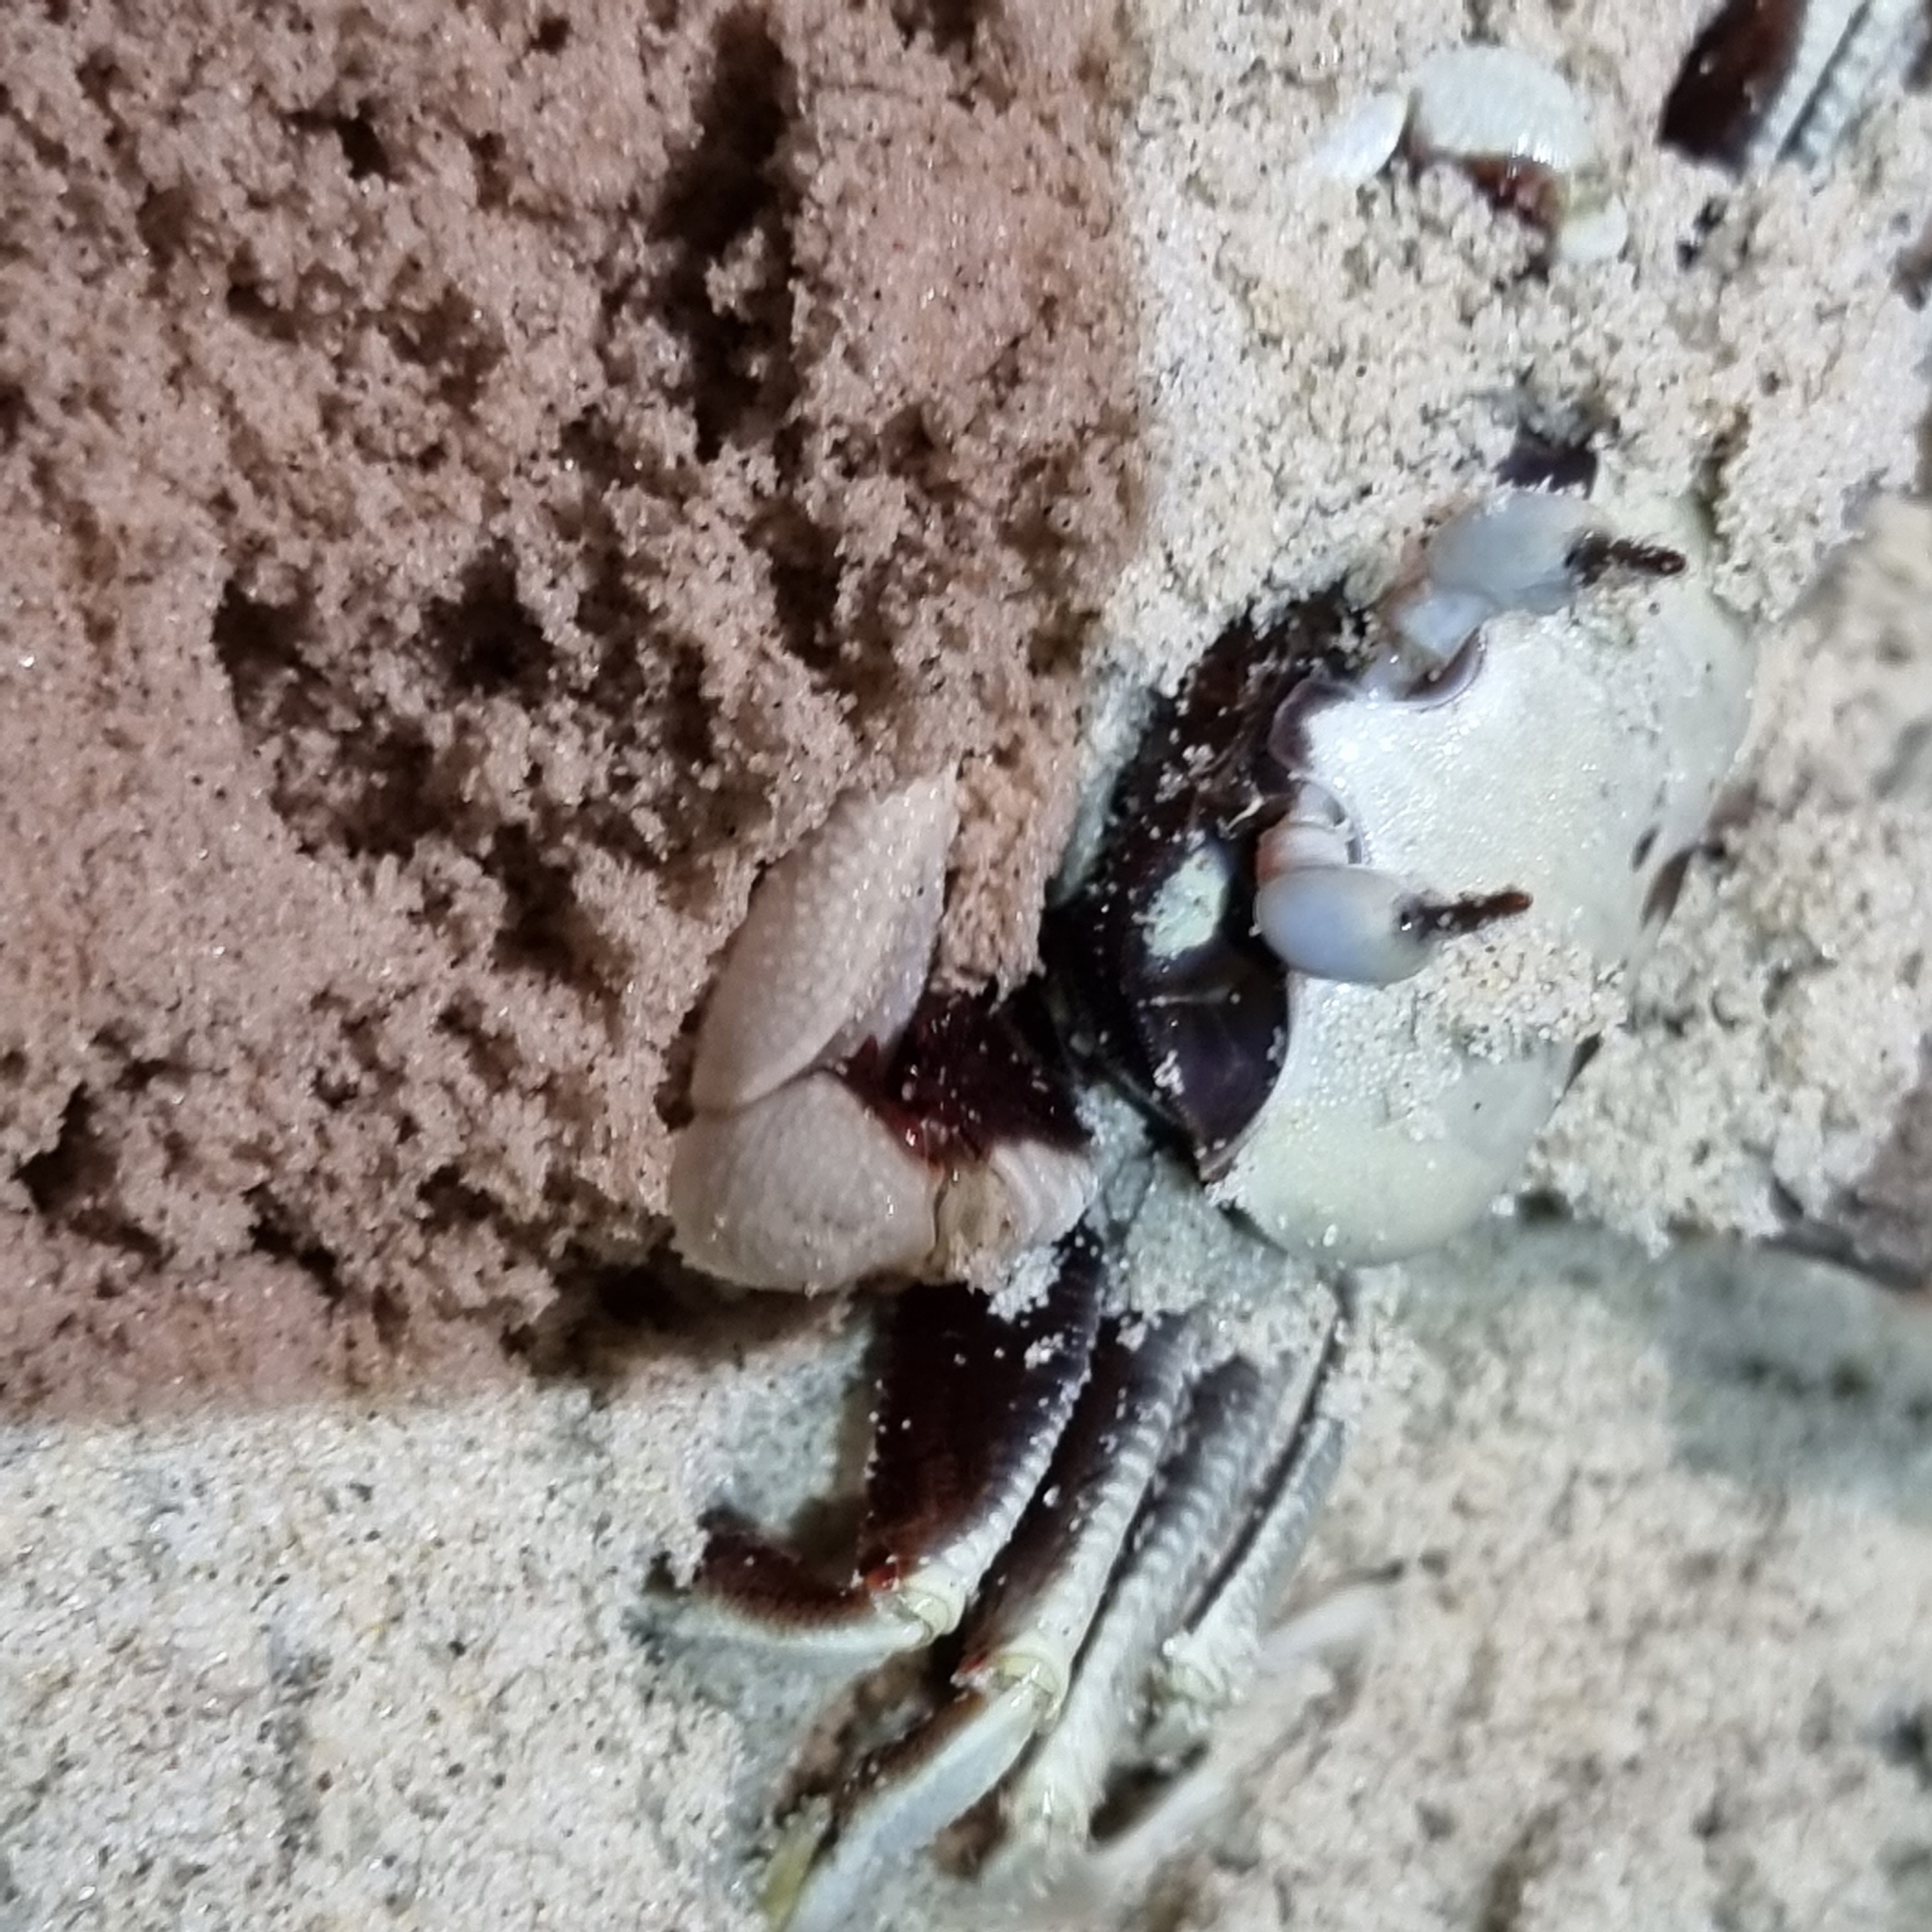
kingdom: Animalia
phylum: Arthropoda
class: Malacostraca
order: Decapoda
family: Ocypodidae
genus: Ocypode
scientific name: Ocypode ceratophthalmus
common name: Indo-pacific ghost crab
